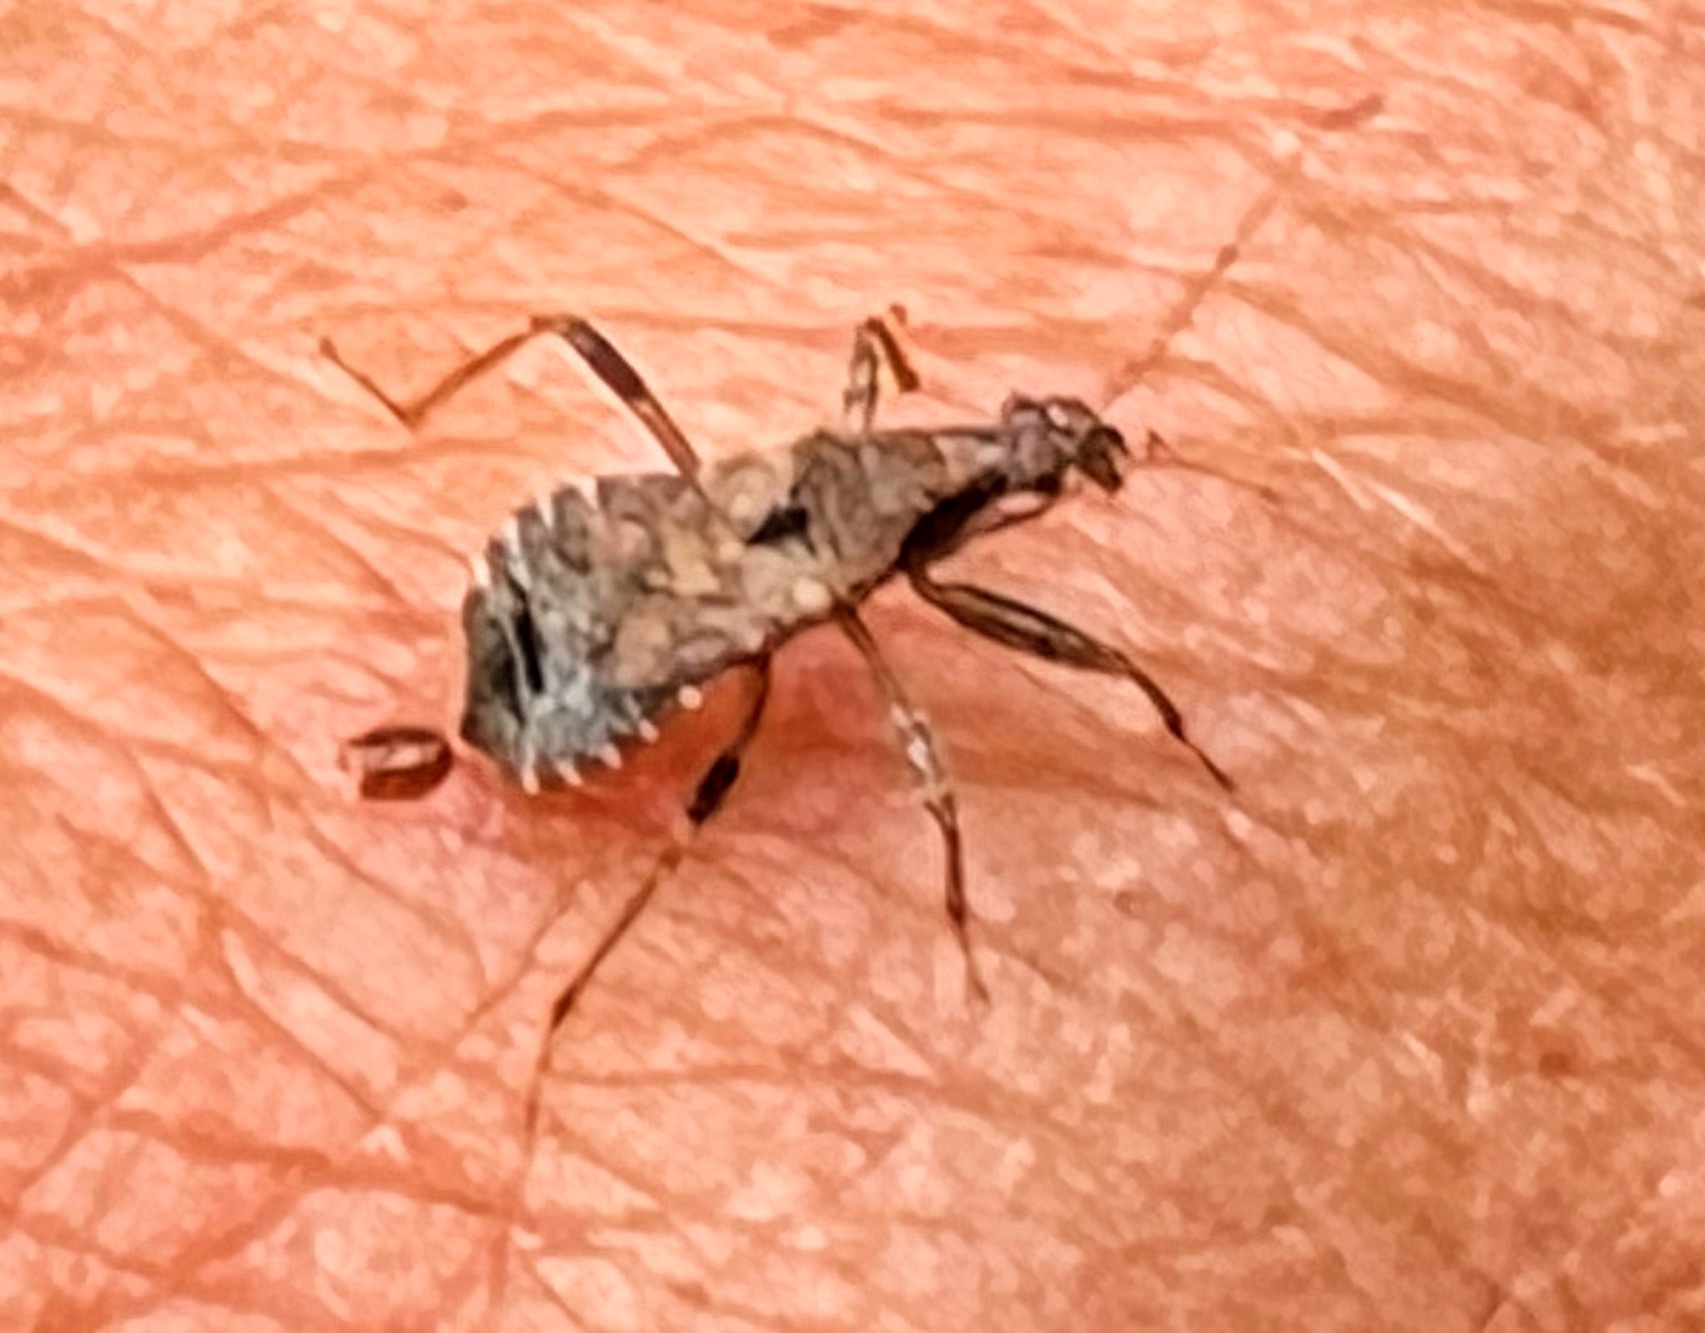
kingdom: Animalia
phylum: Arthropoda
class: Insecta
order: Hemiptera
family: Nabidae
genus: Himacerus
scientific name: Himacerus mirmicoides
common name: Ant damsel bug
